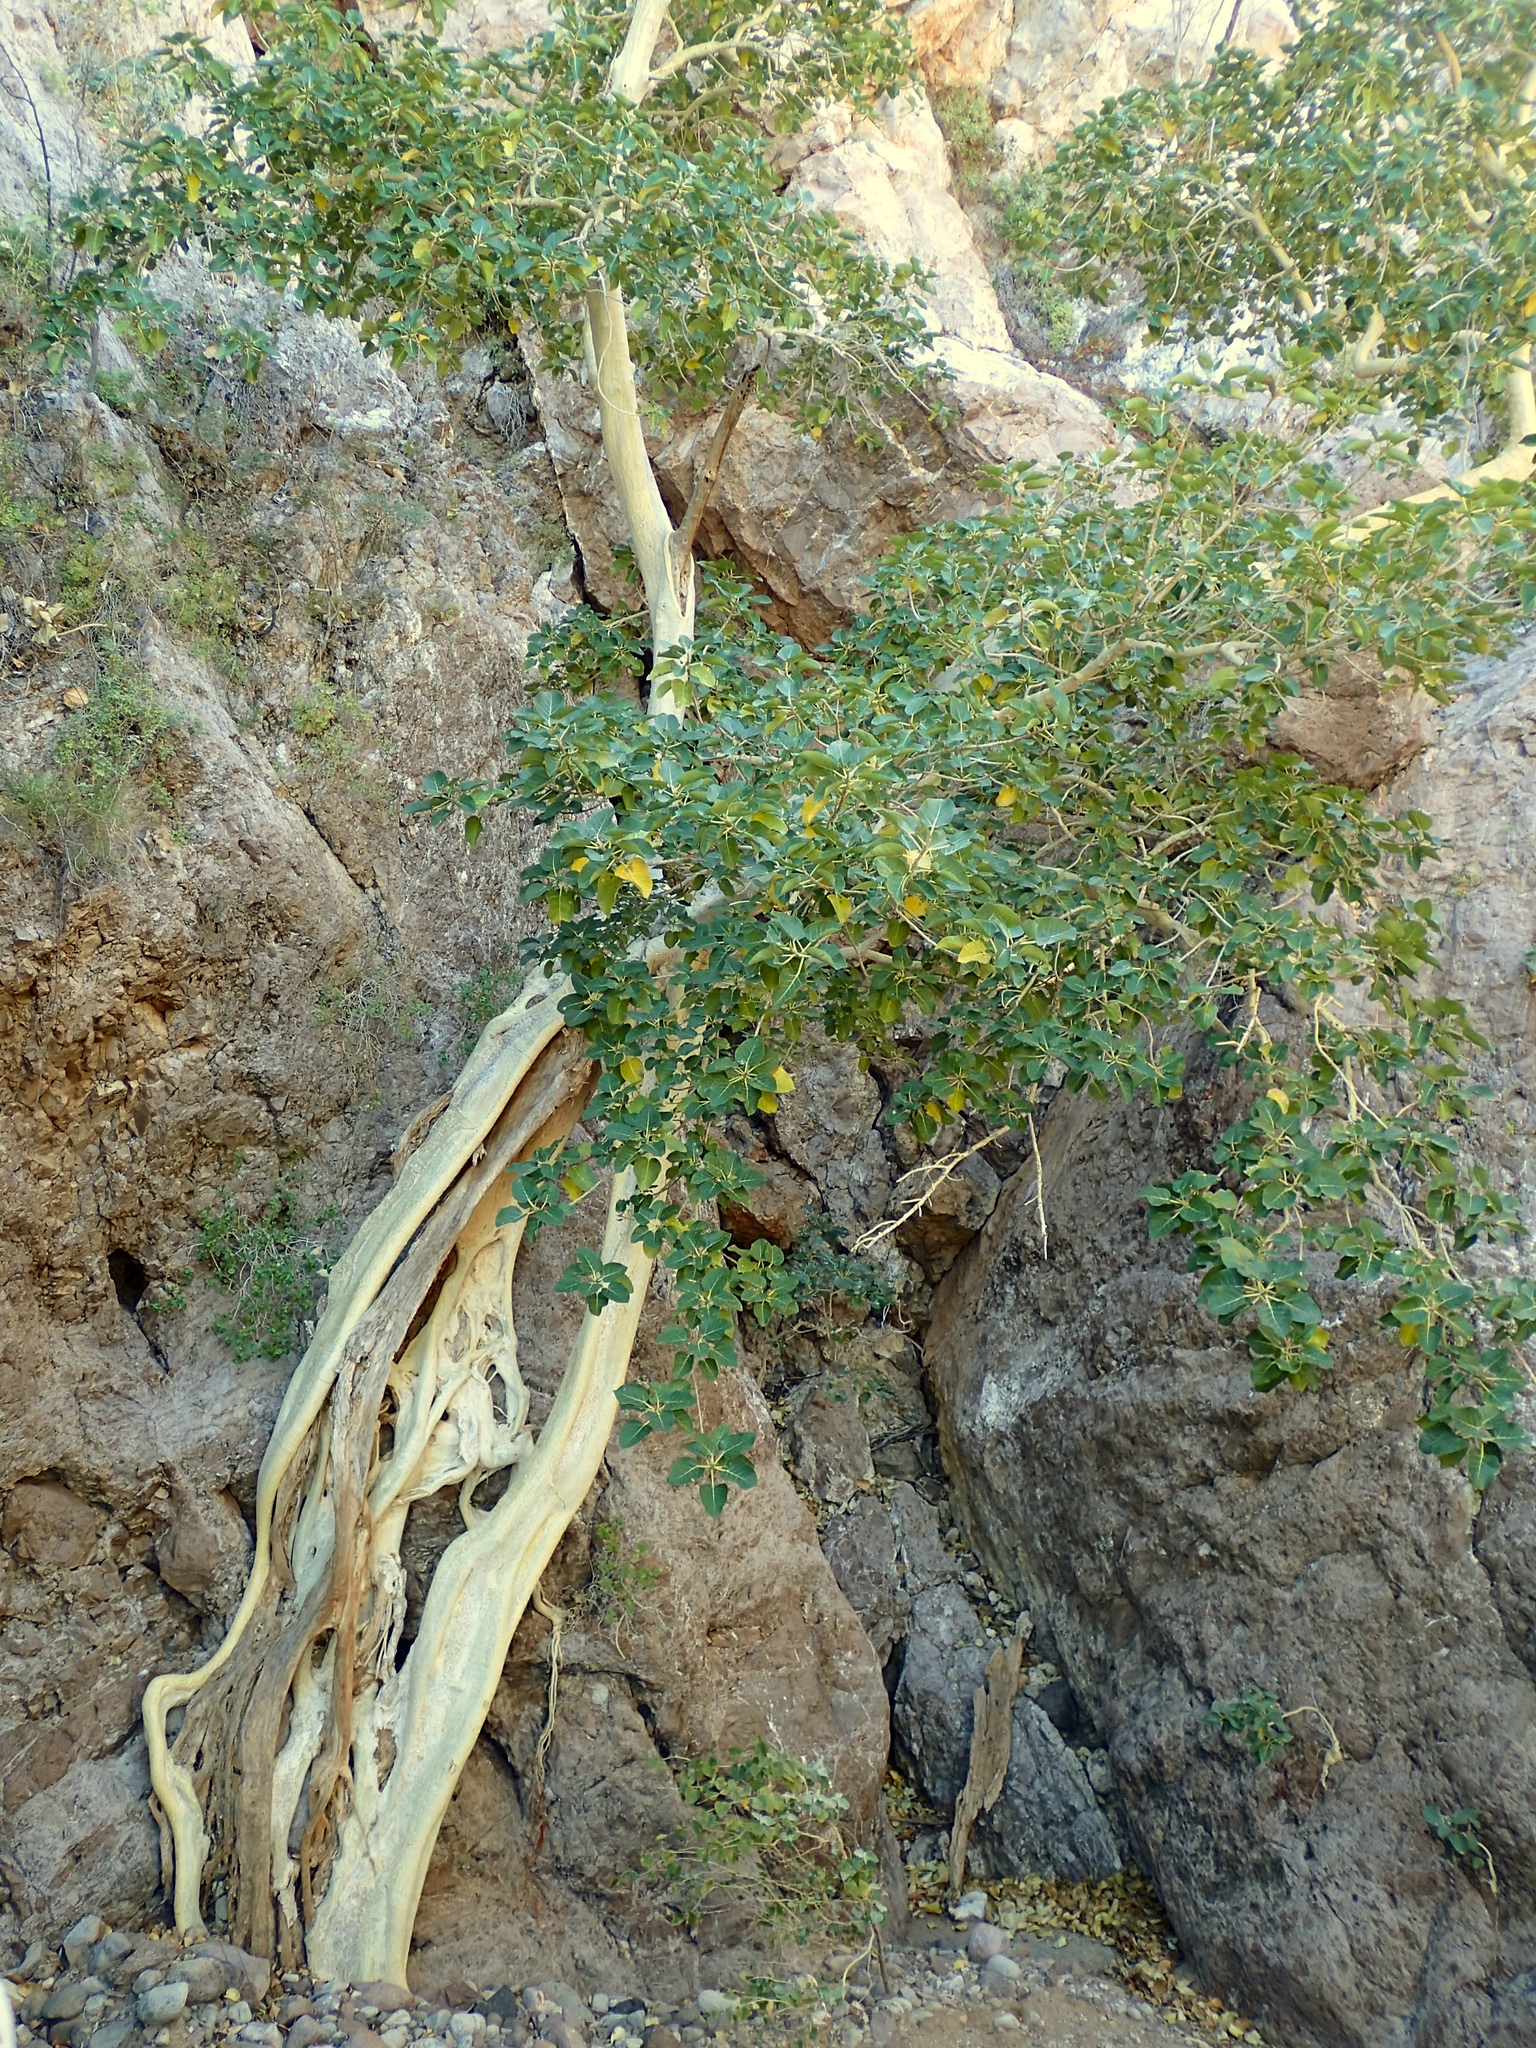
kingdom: Plantae
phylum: Tracheophyta
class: Magnoliopsida
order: Rosales
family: Moraceae
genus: Ficus
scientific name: Ficus petiolaris
